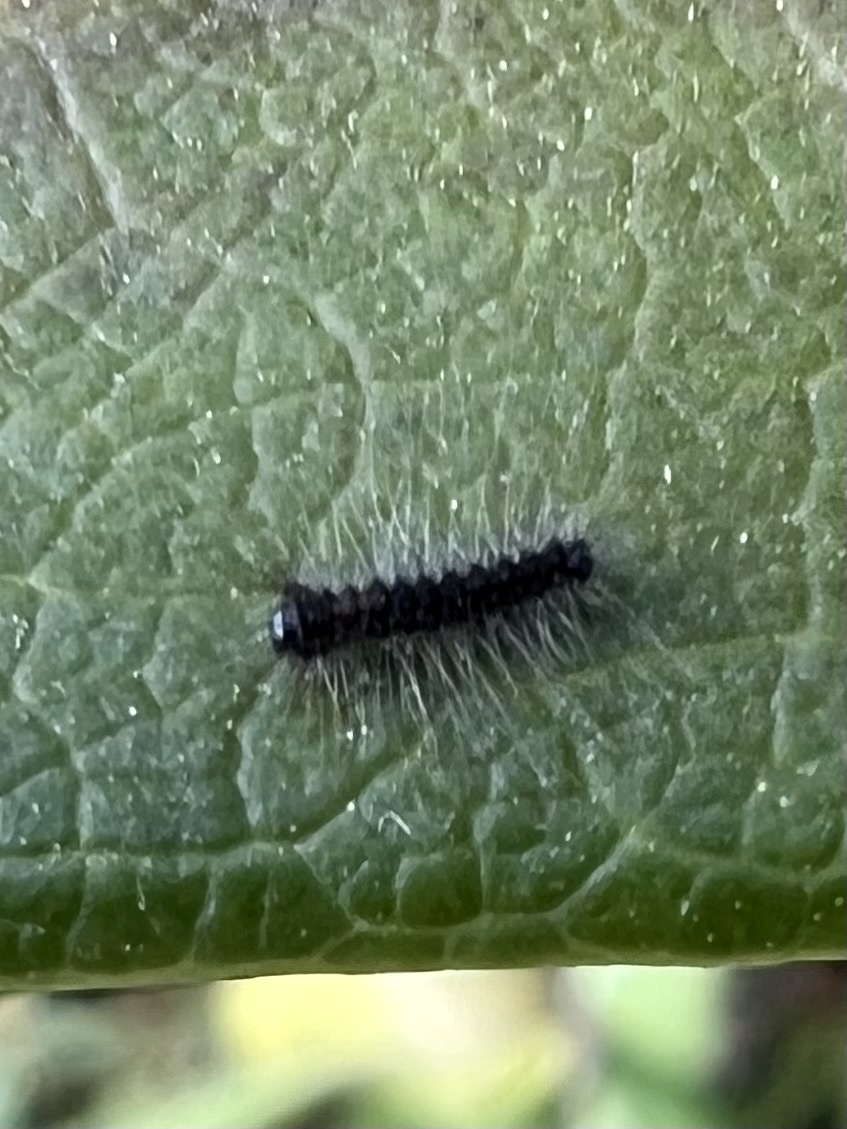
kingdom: Animalia
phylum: Arthropoda
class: Insecta
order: Lepidoptera
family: Erebidae
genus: Lymantria
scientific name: Lymantria dispar
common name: Gypsy moth
